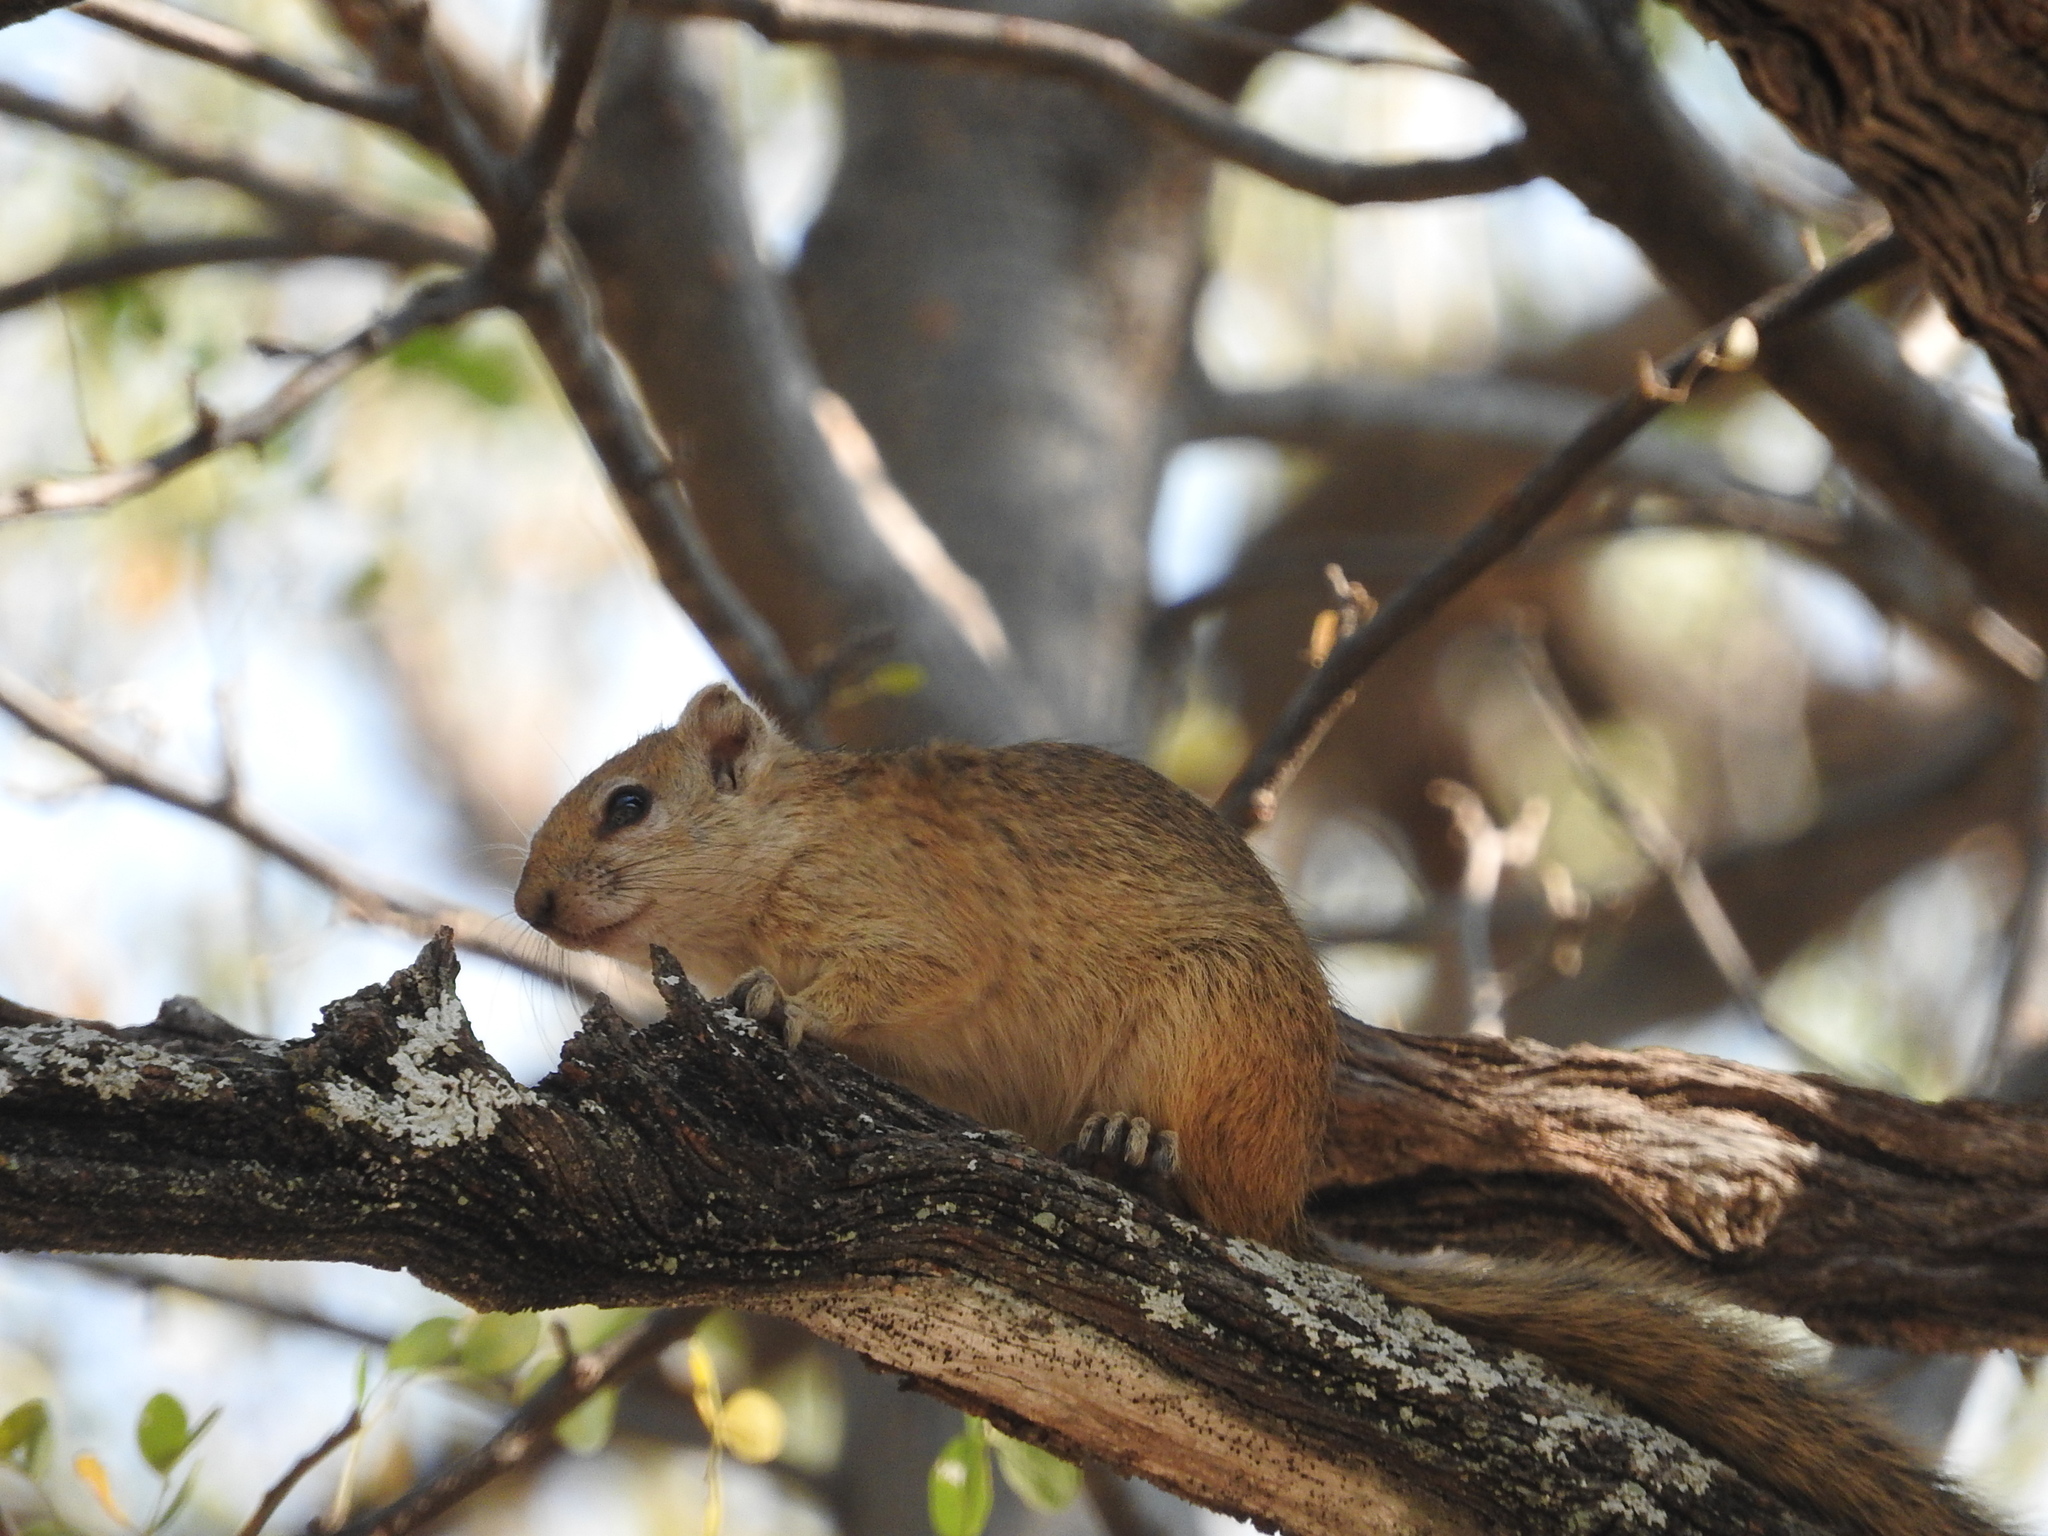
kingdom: Animalia
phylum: Chordata
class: Mammalia
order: Rodentia
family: Sciuridae
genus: Paraxerus
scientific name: Paraxerus cepapi
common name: Smith's bush squirrel
